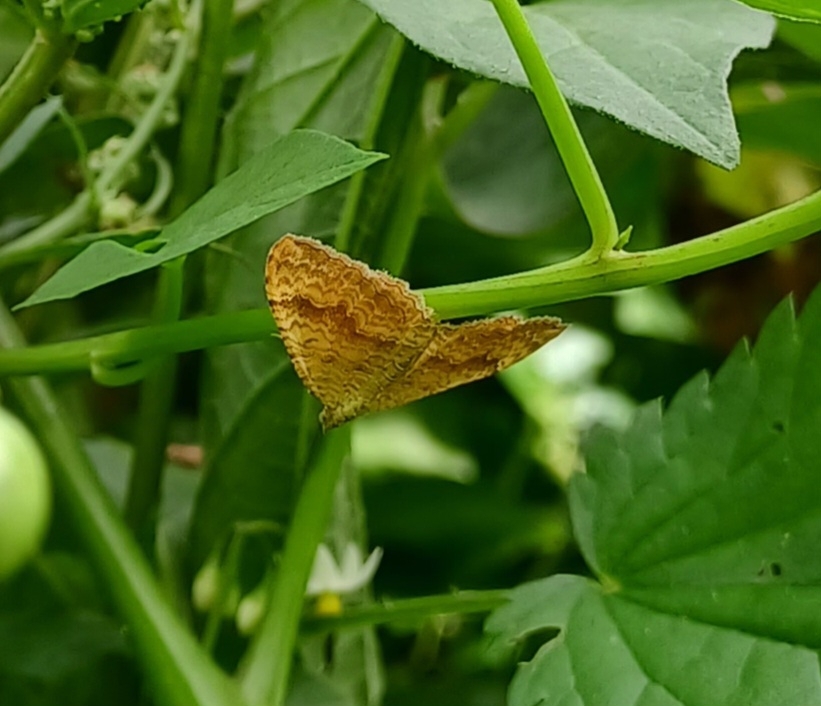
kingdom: Animalia
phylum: Arthropoda
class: Insecta
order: Lepidoptera
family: Geometridae
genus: Camptogramma
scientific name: Camptogramma bilineata
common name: Yellow shell
